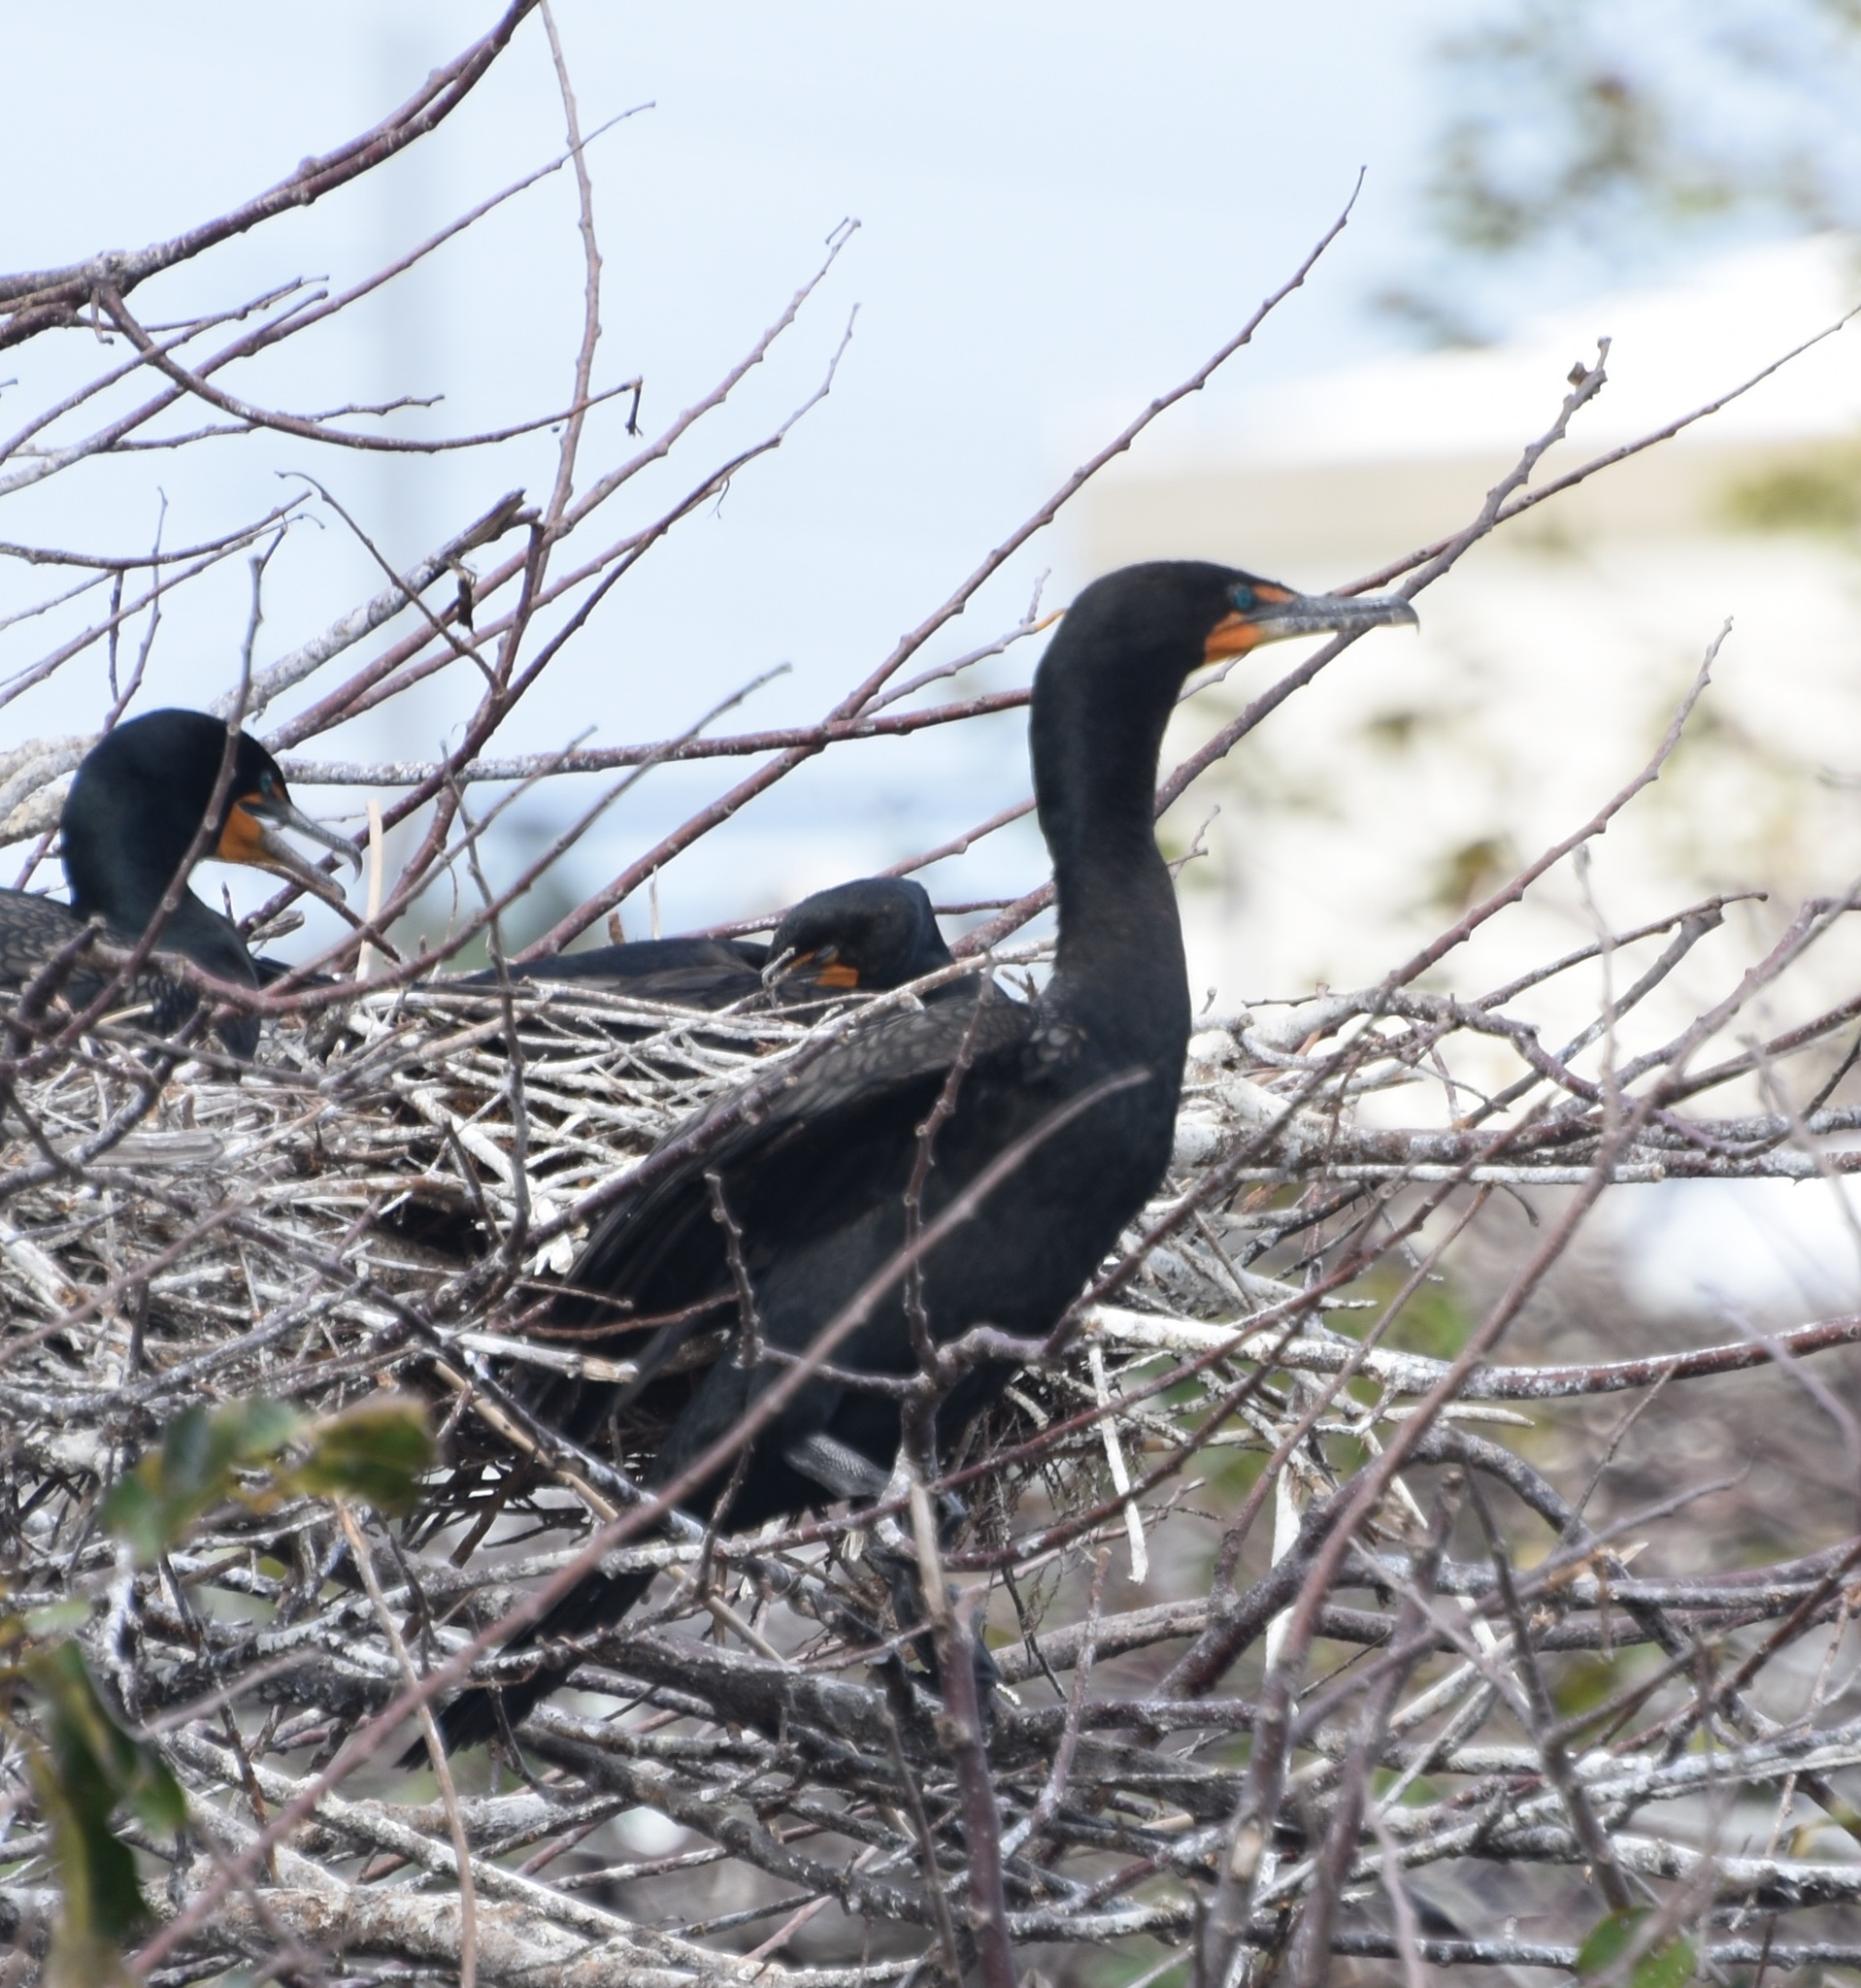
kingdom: Animalia
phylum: Chordata
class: Aves
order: Suliformes
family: Phalacrocoracidae
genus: Phalacrocorax
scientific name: Phalacrocorax auritus
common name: Double-crested cormorant
